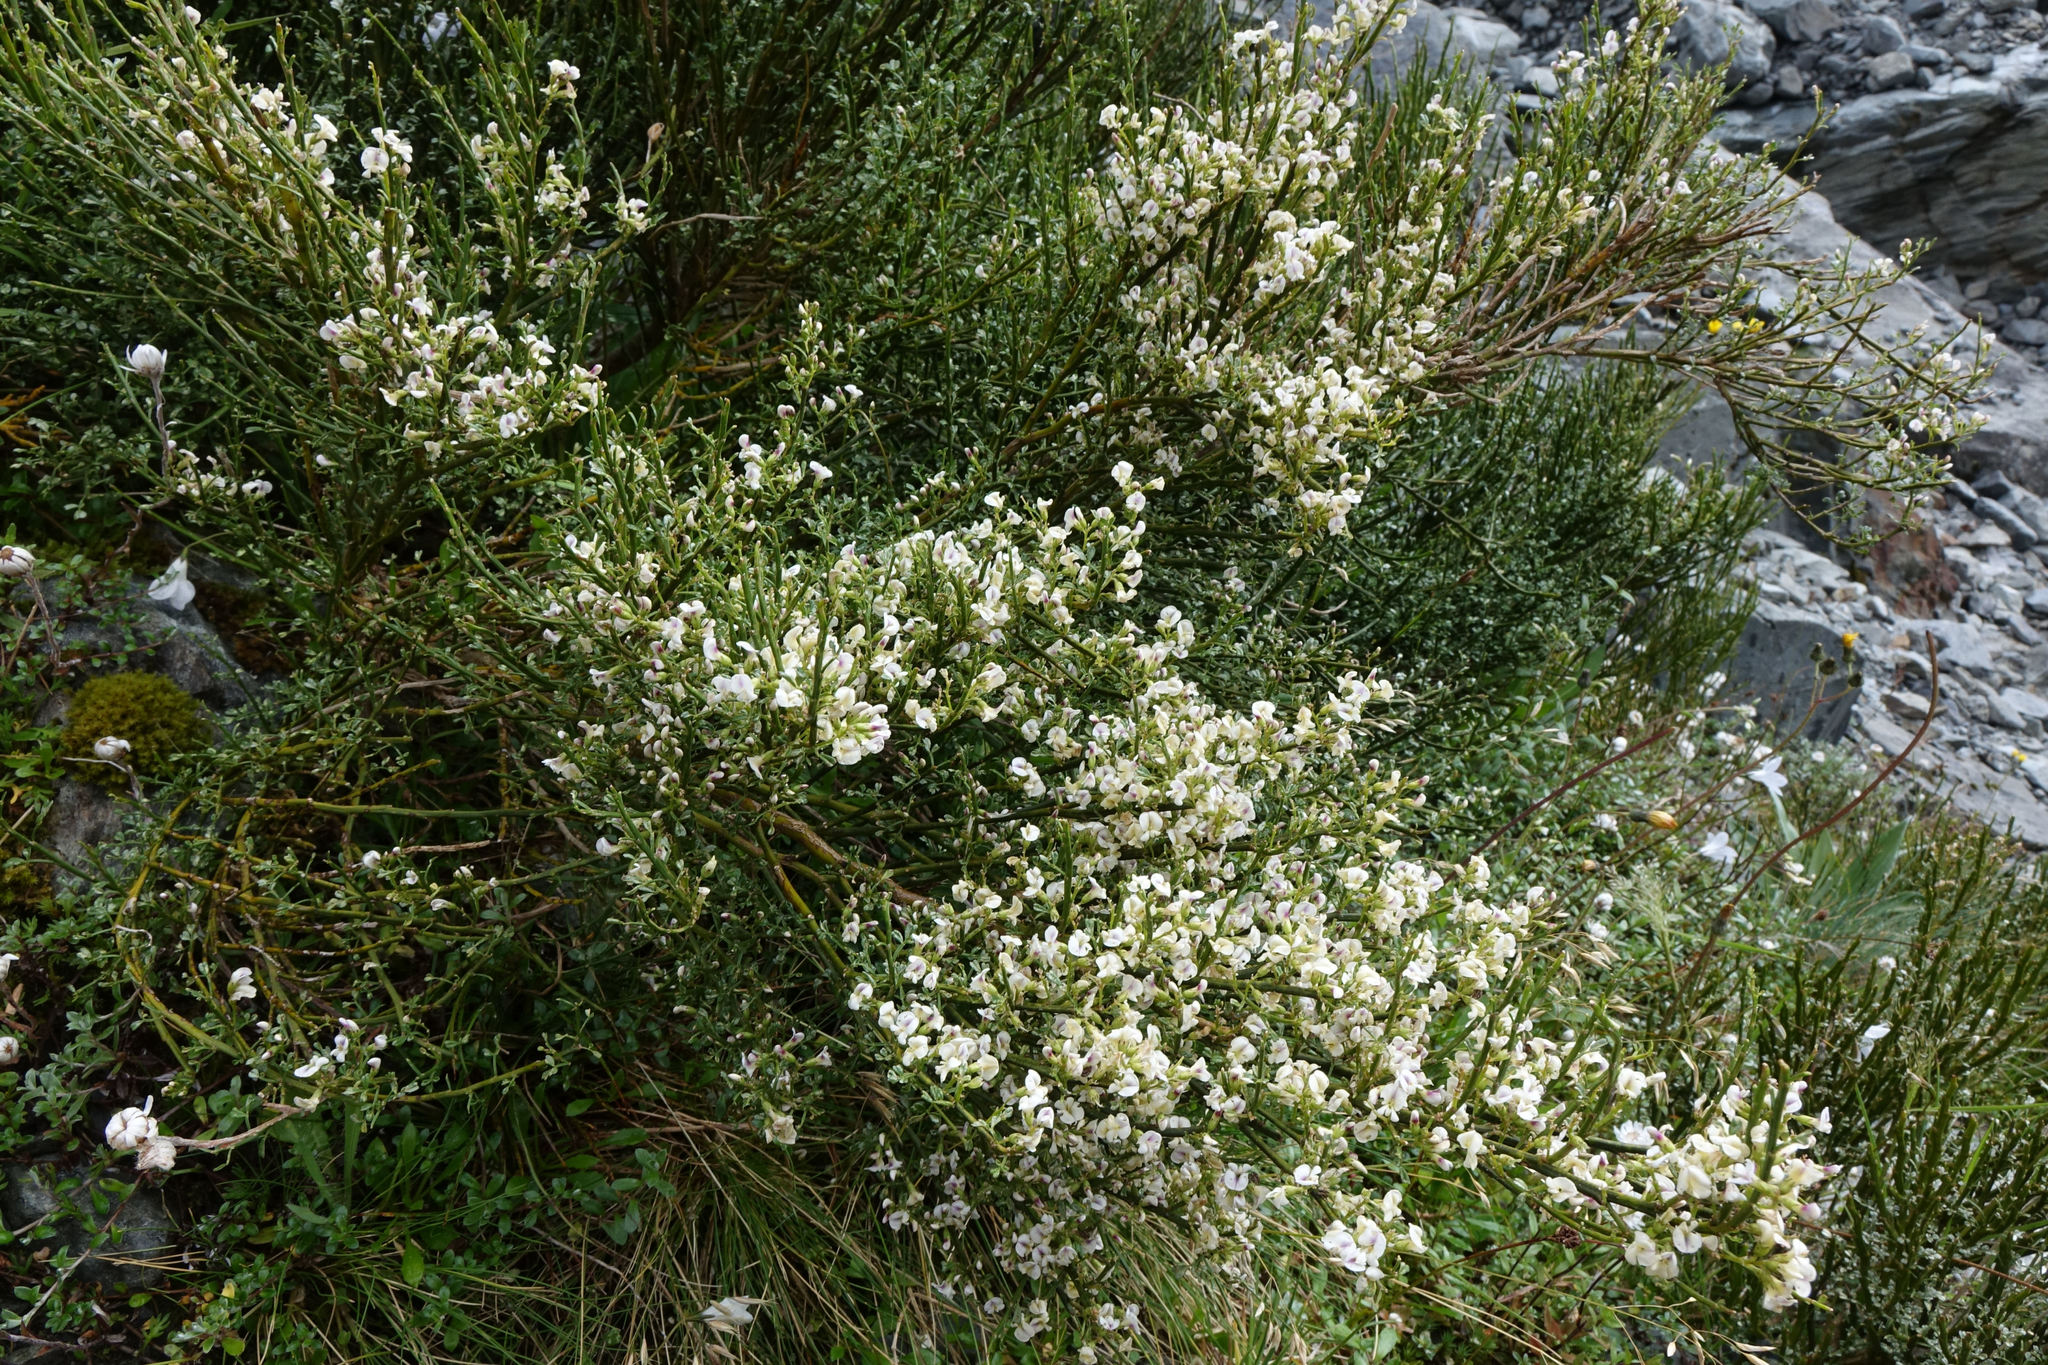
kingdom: Plantae
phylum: Tracheophyta
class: Magnoliopsida
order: Fabales
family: Fabaceae
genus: Carmichaelia
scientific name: Carmichaelia arborea
